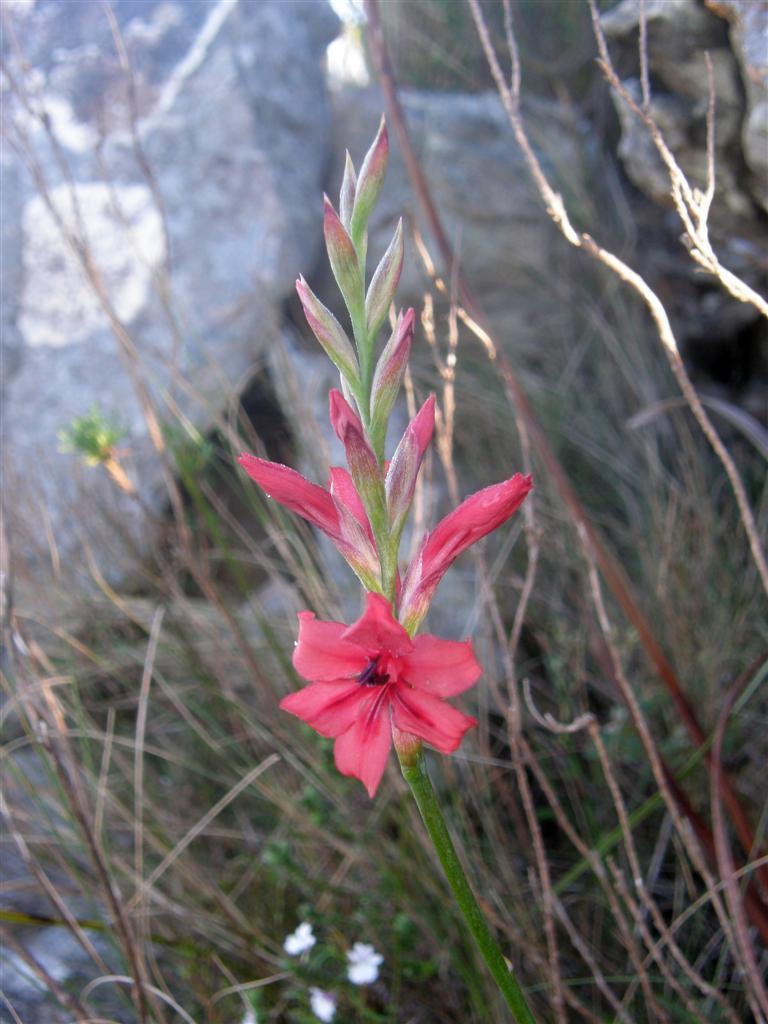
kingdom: Plantae
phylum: Tracheophyta
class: Liliopsida
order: Asparagales
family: Iridaceae
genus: Tritoniopsis
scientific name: Tritoniopsis pulchra
